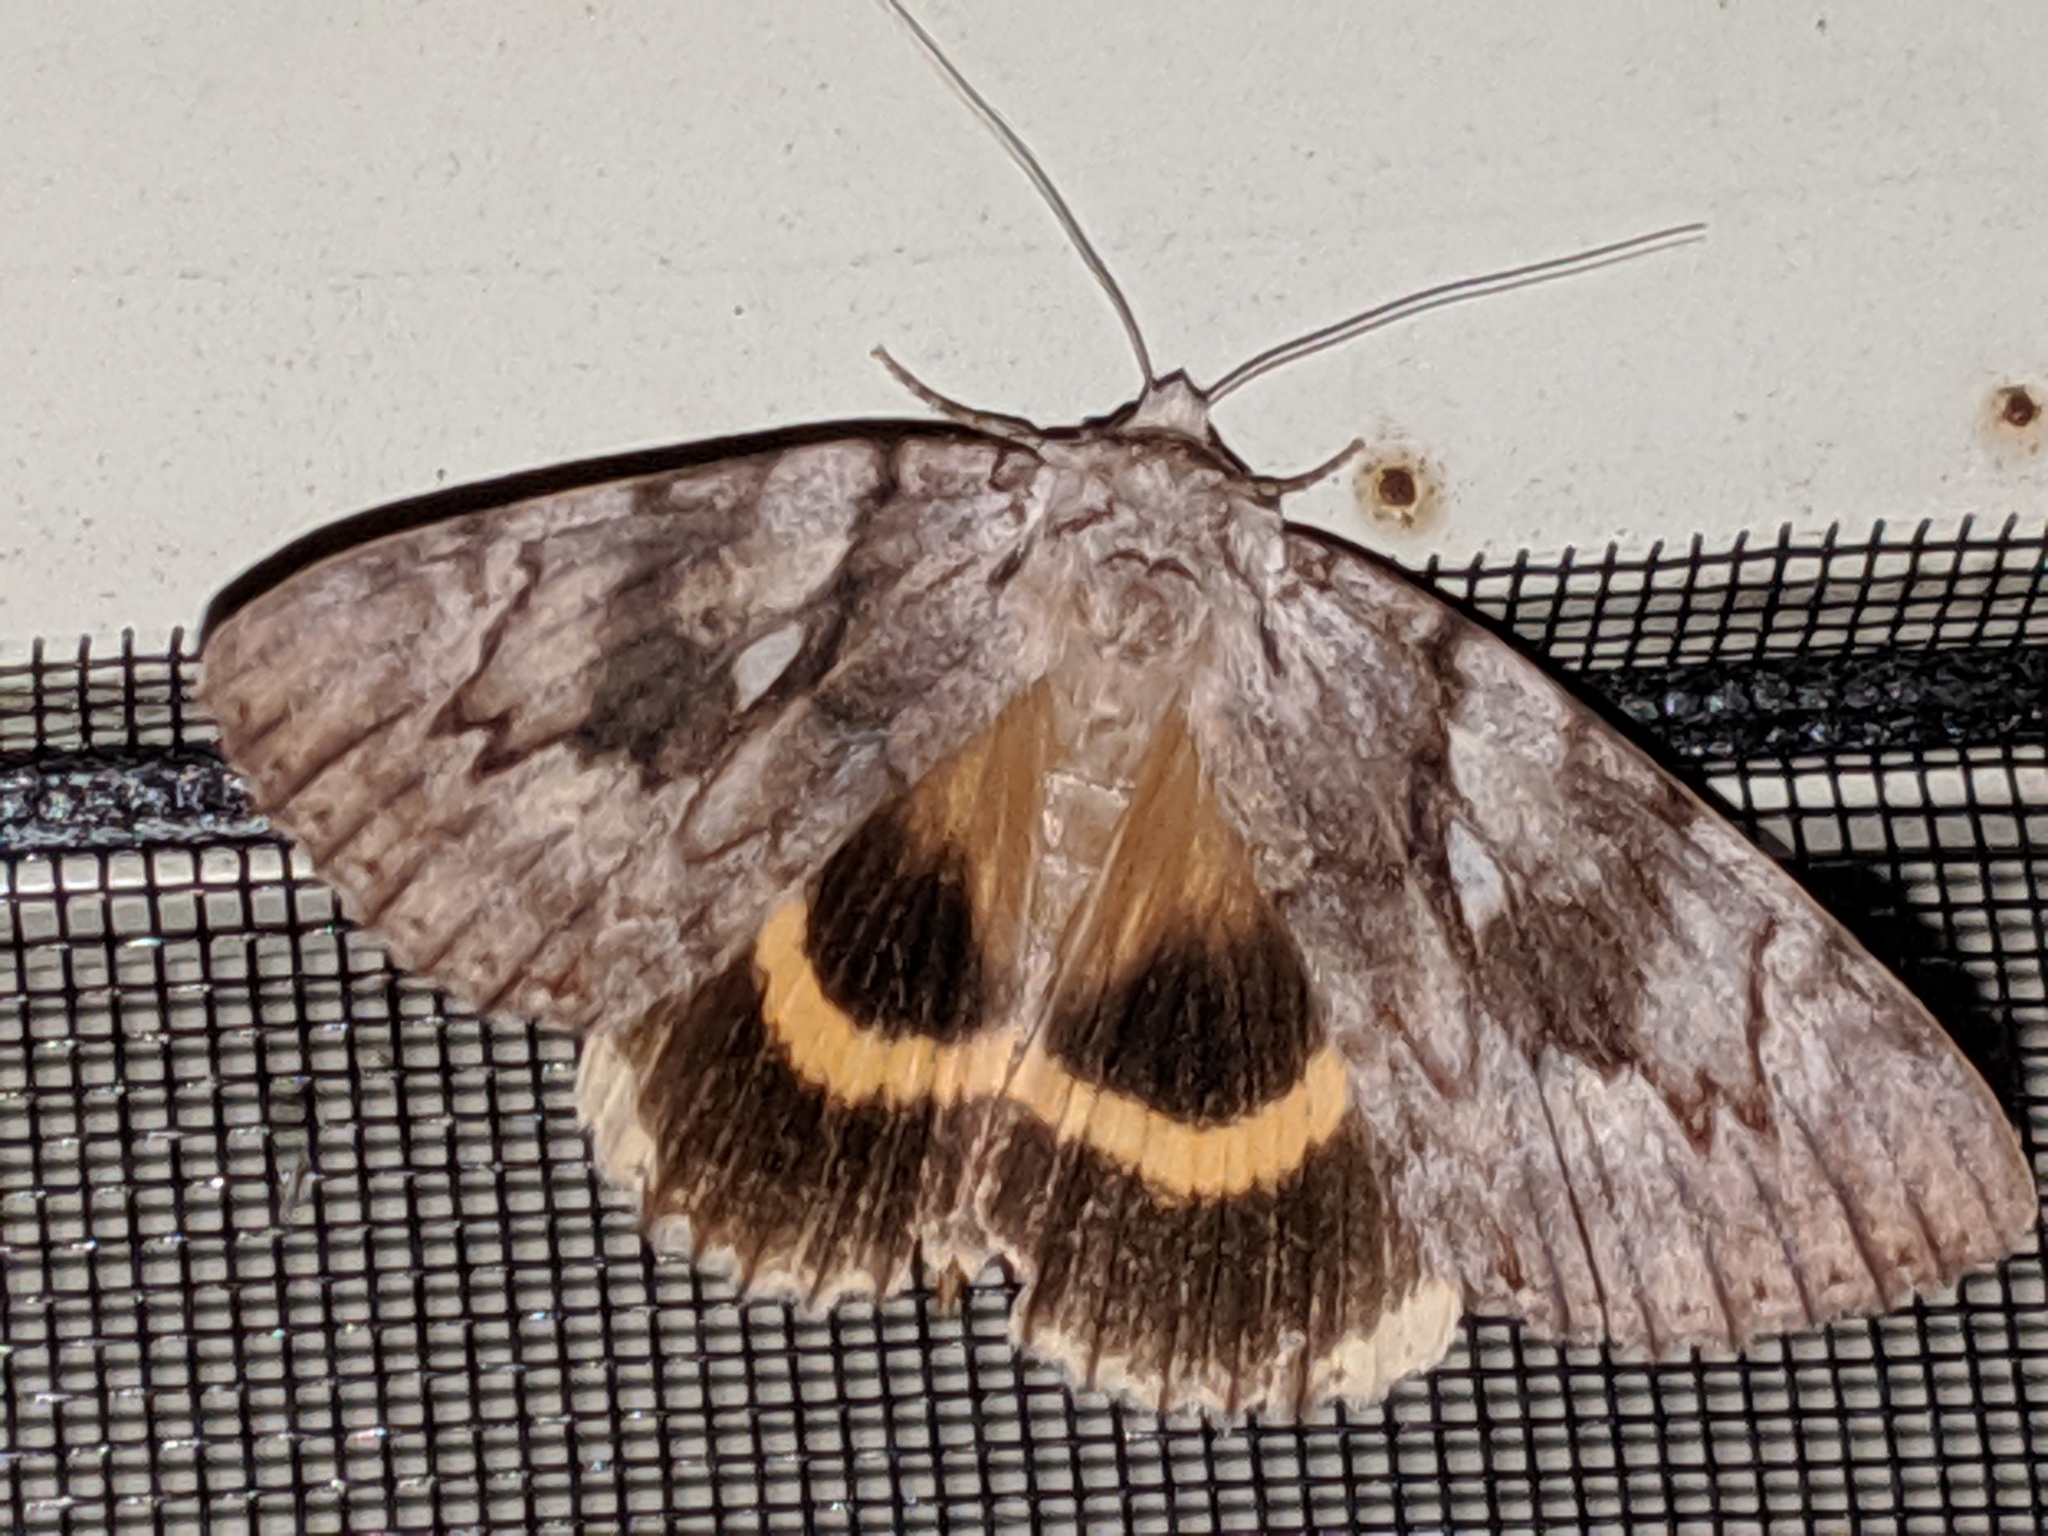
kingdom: Animalia
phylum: Arthropoda
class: Insecta
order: Lepidoptera
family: Erebidae
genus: Catocala
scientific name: Catocala cerogama
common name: Yellow banded underwing
